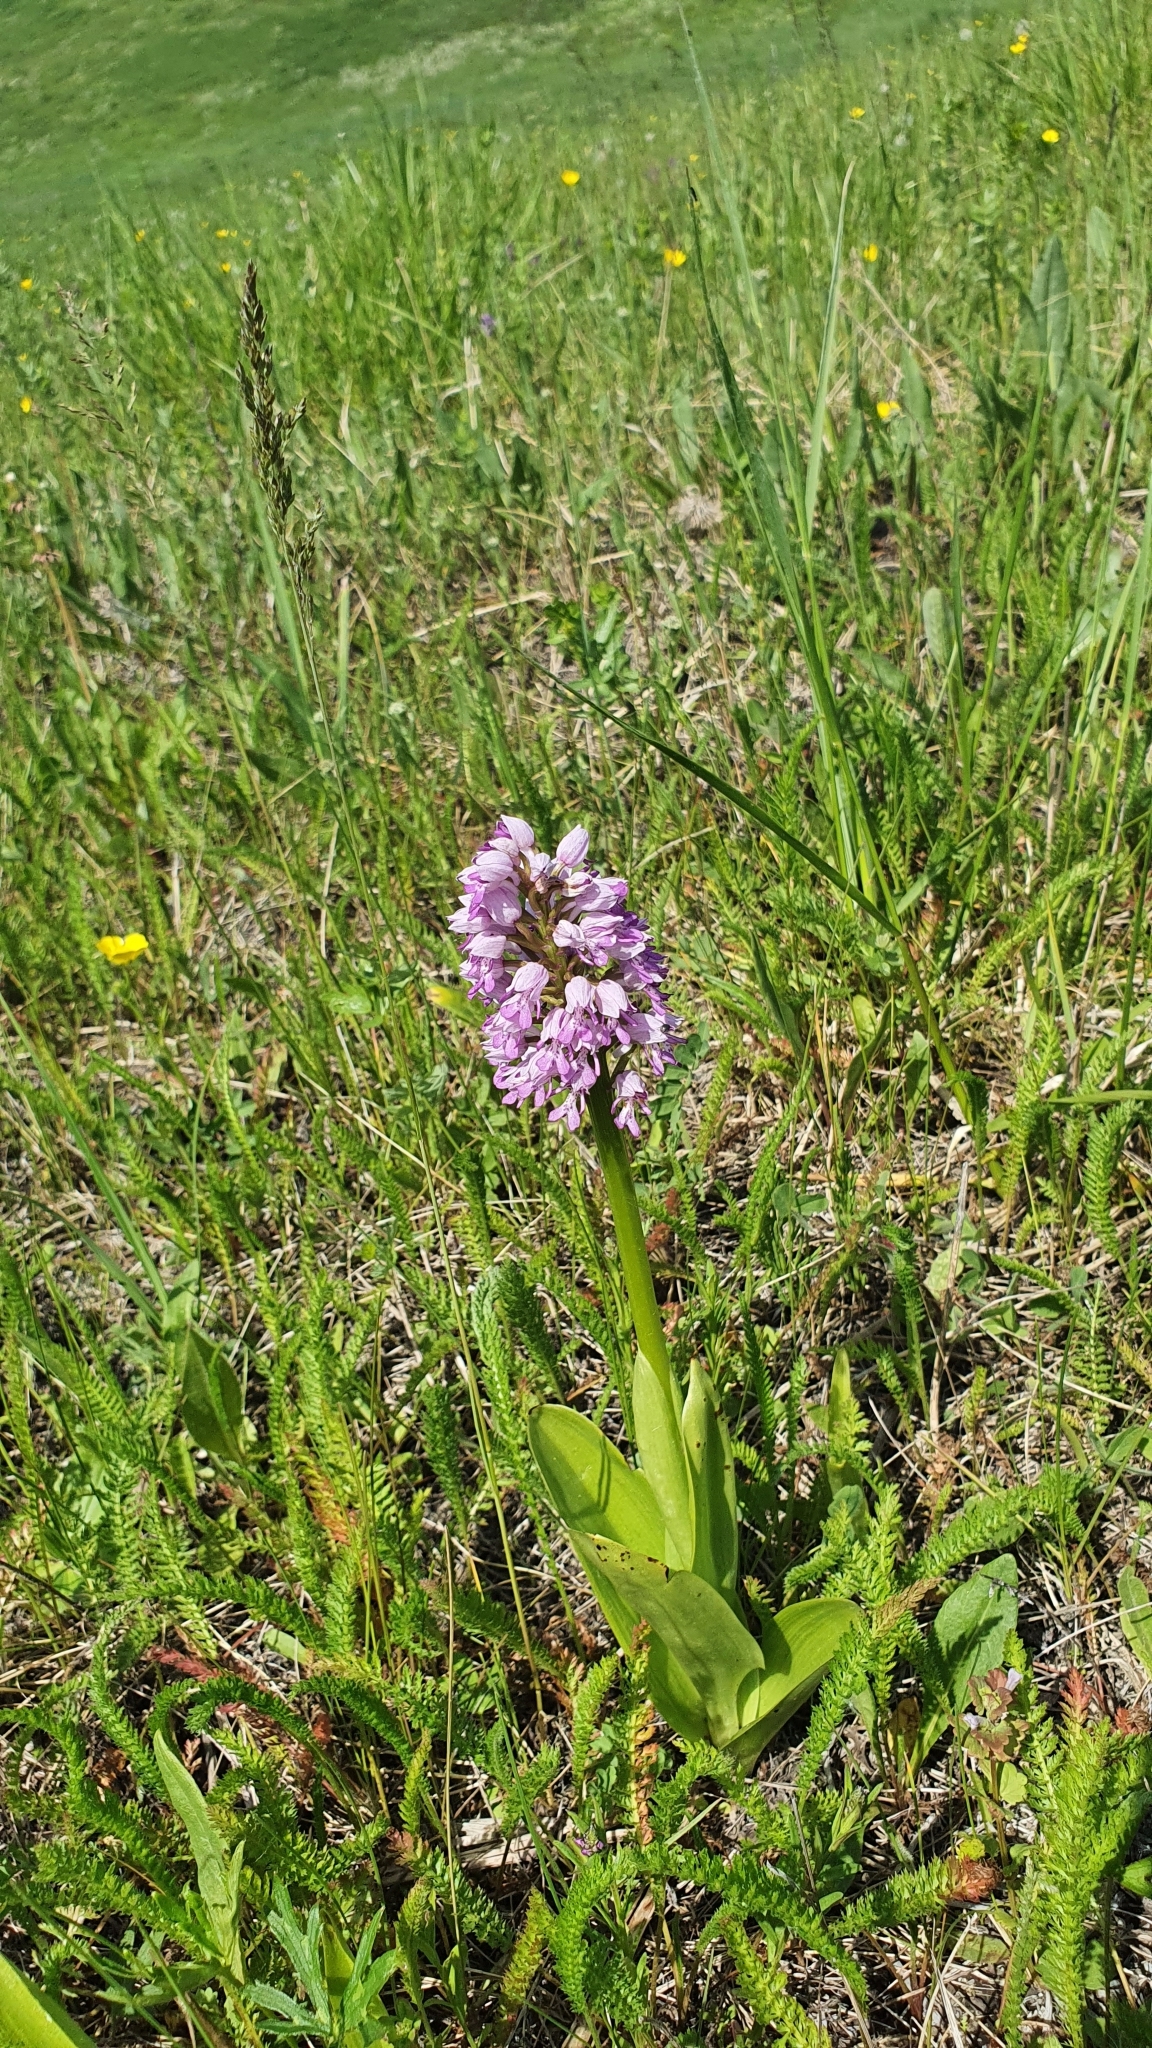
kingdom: Plantae
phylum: Tracheophyta
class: Liliopsida
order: Asparagales
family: Orchidaceae
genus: Orchis
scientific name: Orchis militaris
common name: Military orchid
